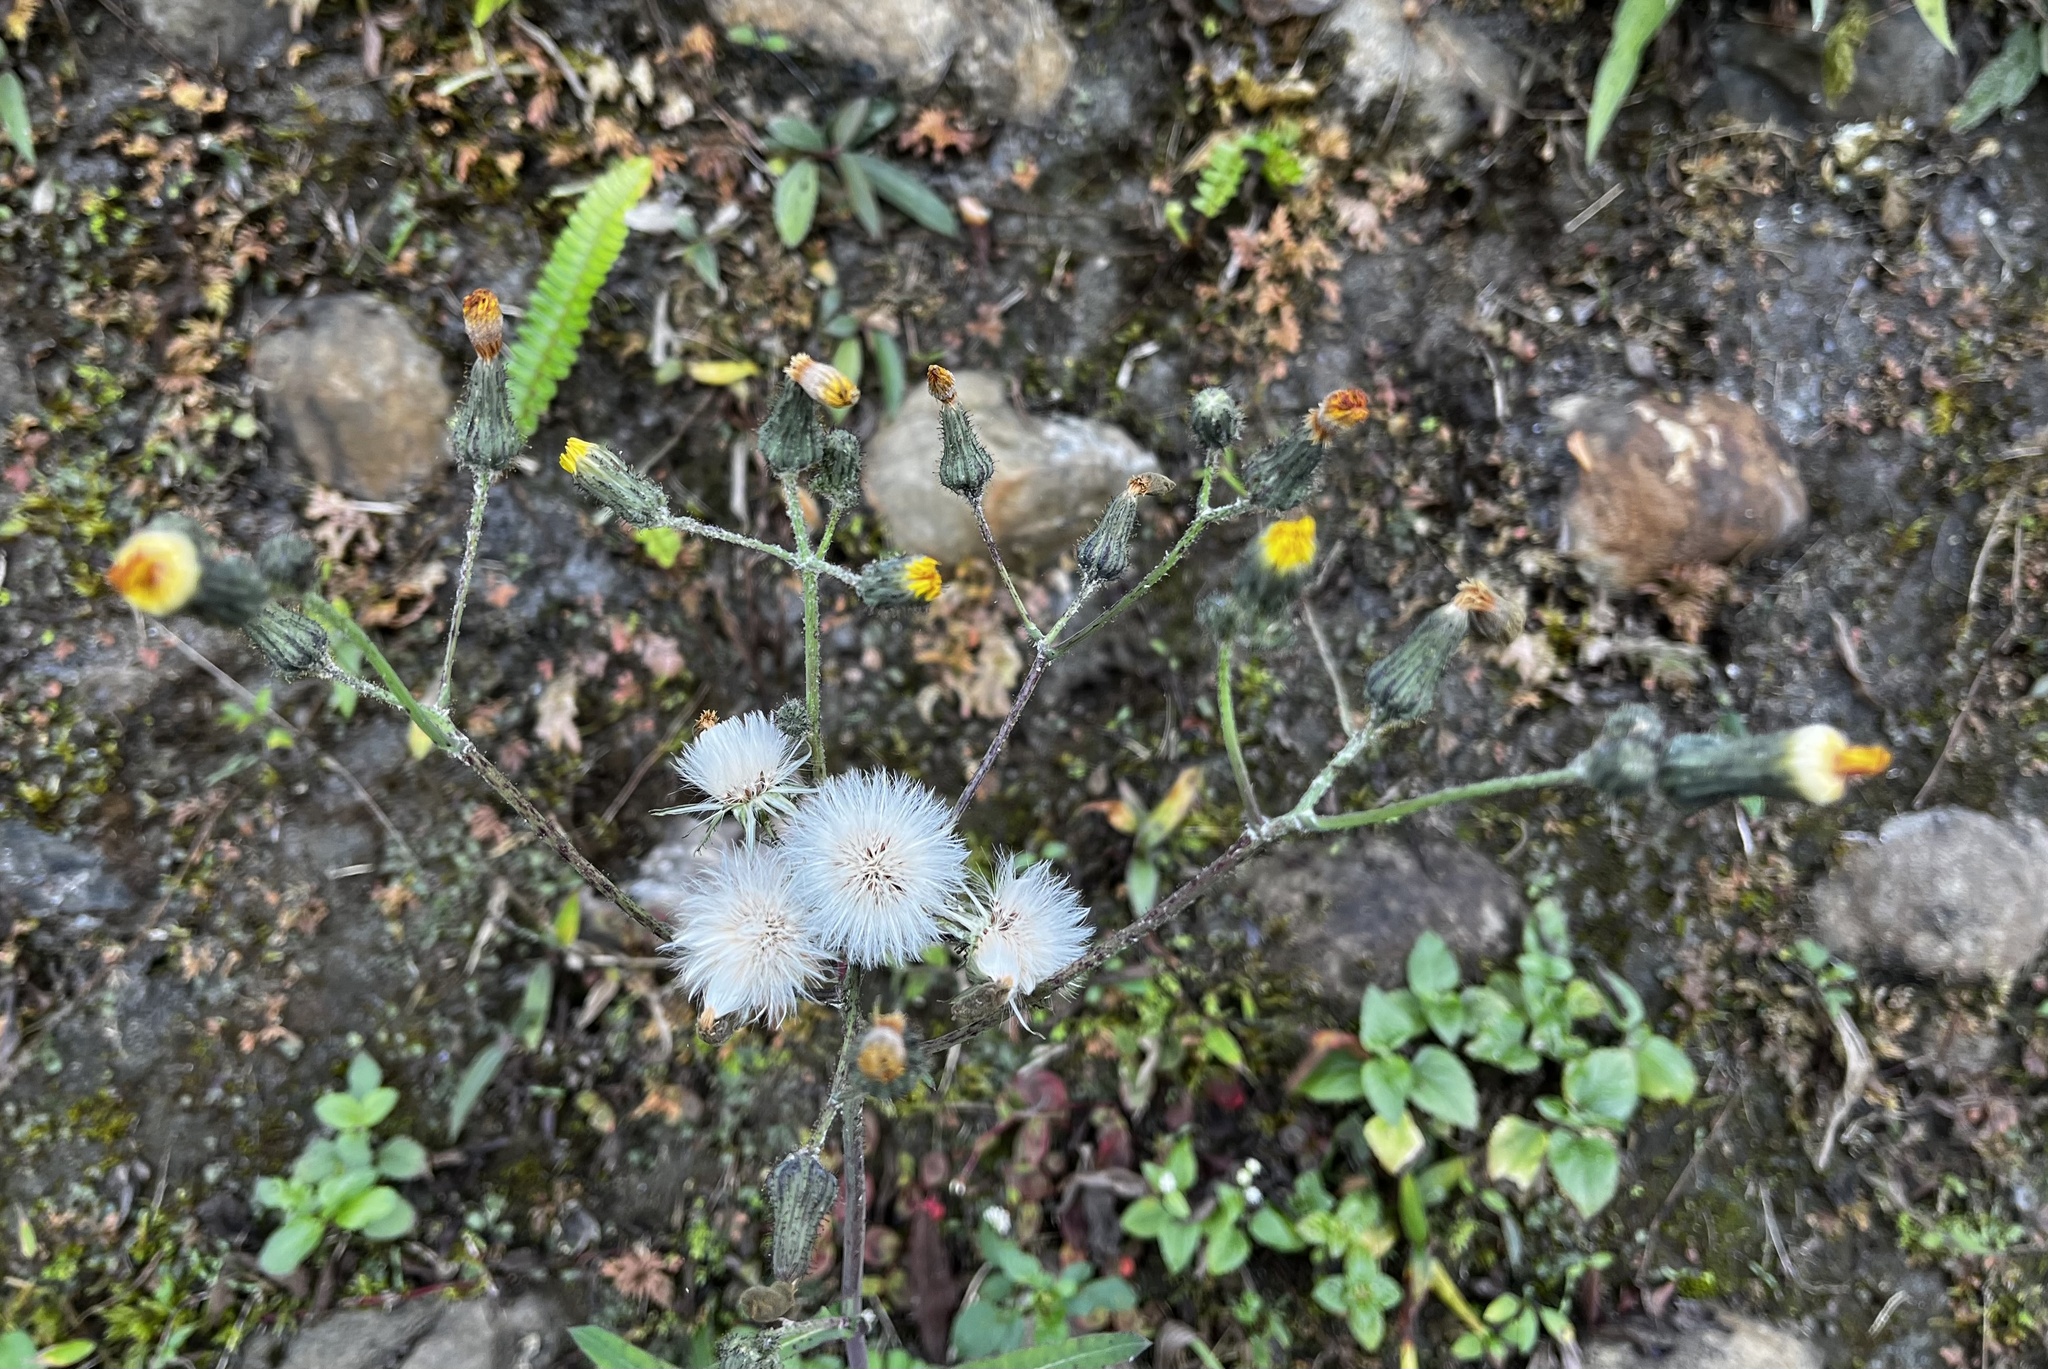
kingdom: Plantae
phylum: Tracheophyta
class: Magnoliopsida
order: Asterales
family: Asteraceae
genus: Sonchus
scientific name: Sonchus arvensis
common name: Perennial sow-thistle
